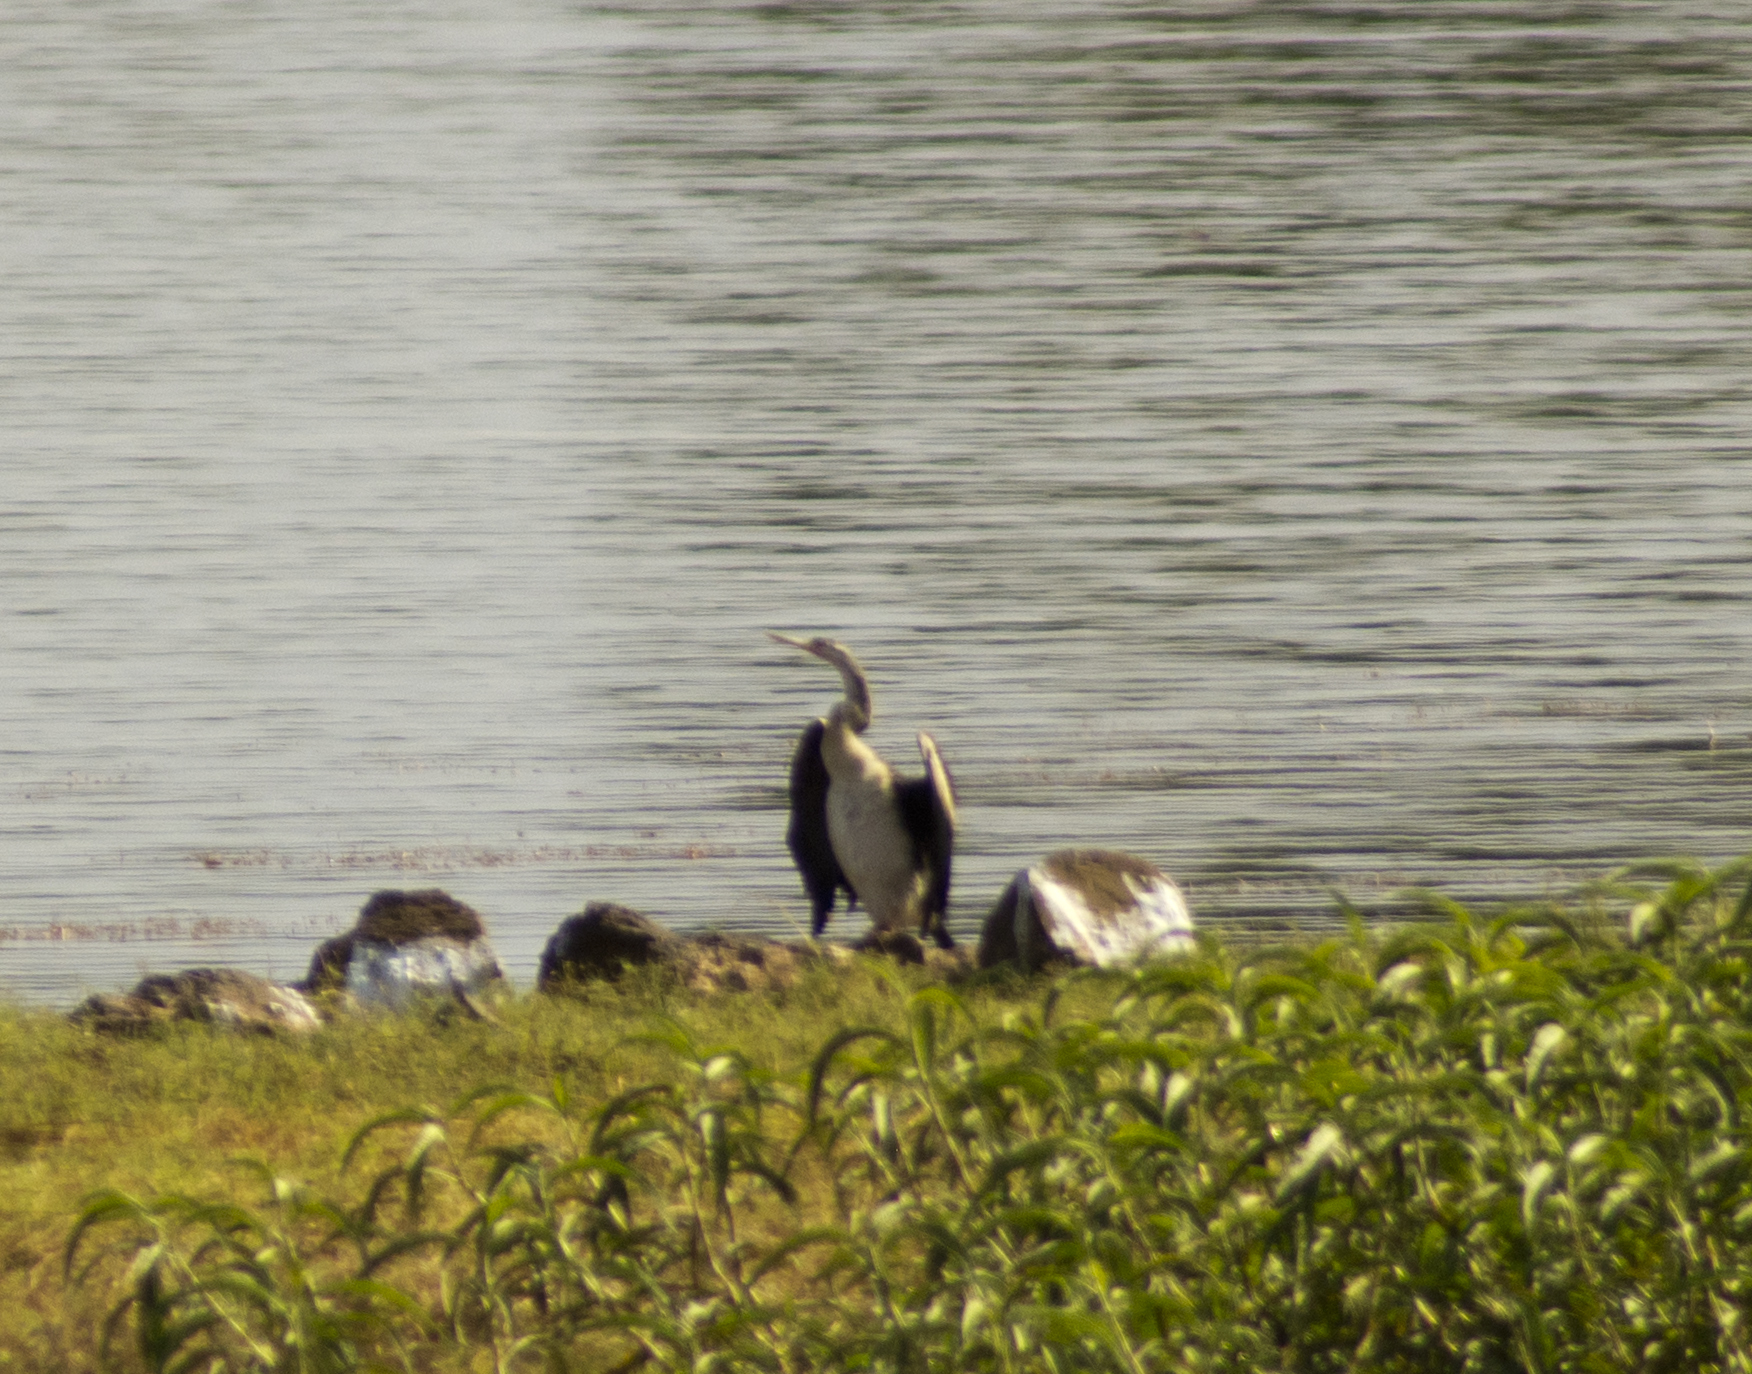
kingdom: Animalia
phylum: Chordata
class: Aves
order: Suliformes
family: Anhingidae
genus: Anhinga
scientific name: Anhinga novaehollandiae
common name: Australasian darter
